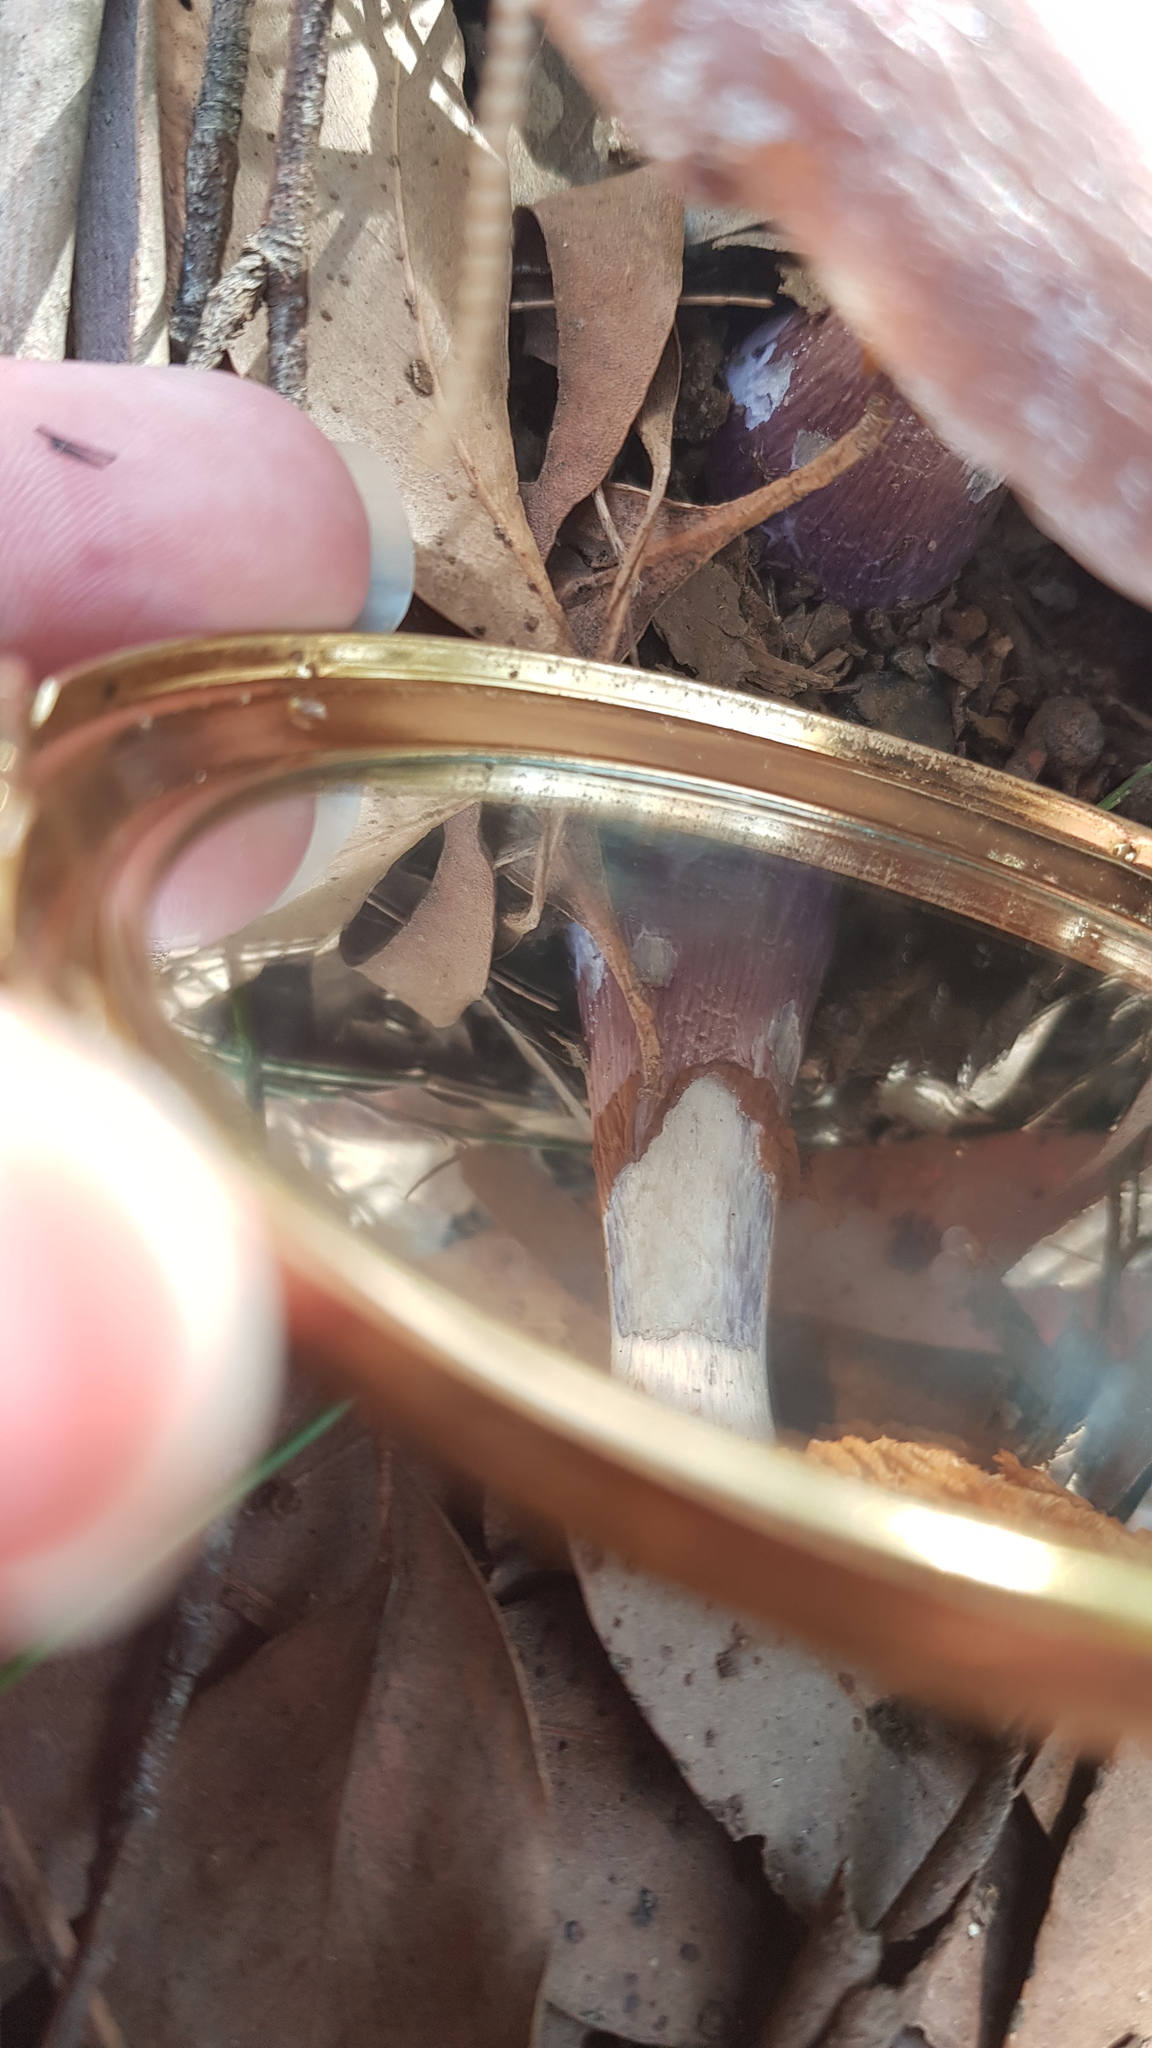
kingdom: Fungi
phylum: Basidiomycota
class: Agaricomycetes
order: Agaricales
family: Cortinariaceae
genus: Cortinarius
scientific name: Cortinarius archeri
